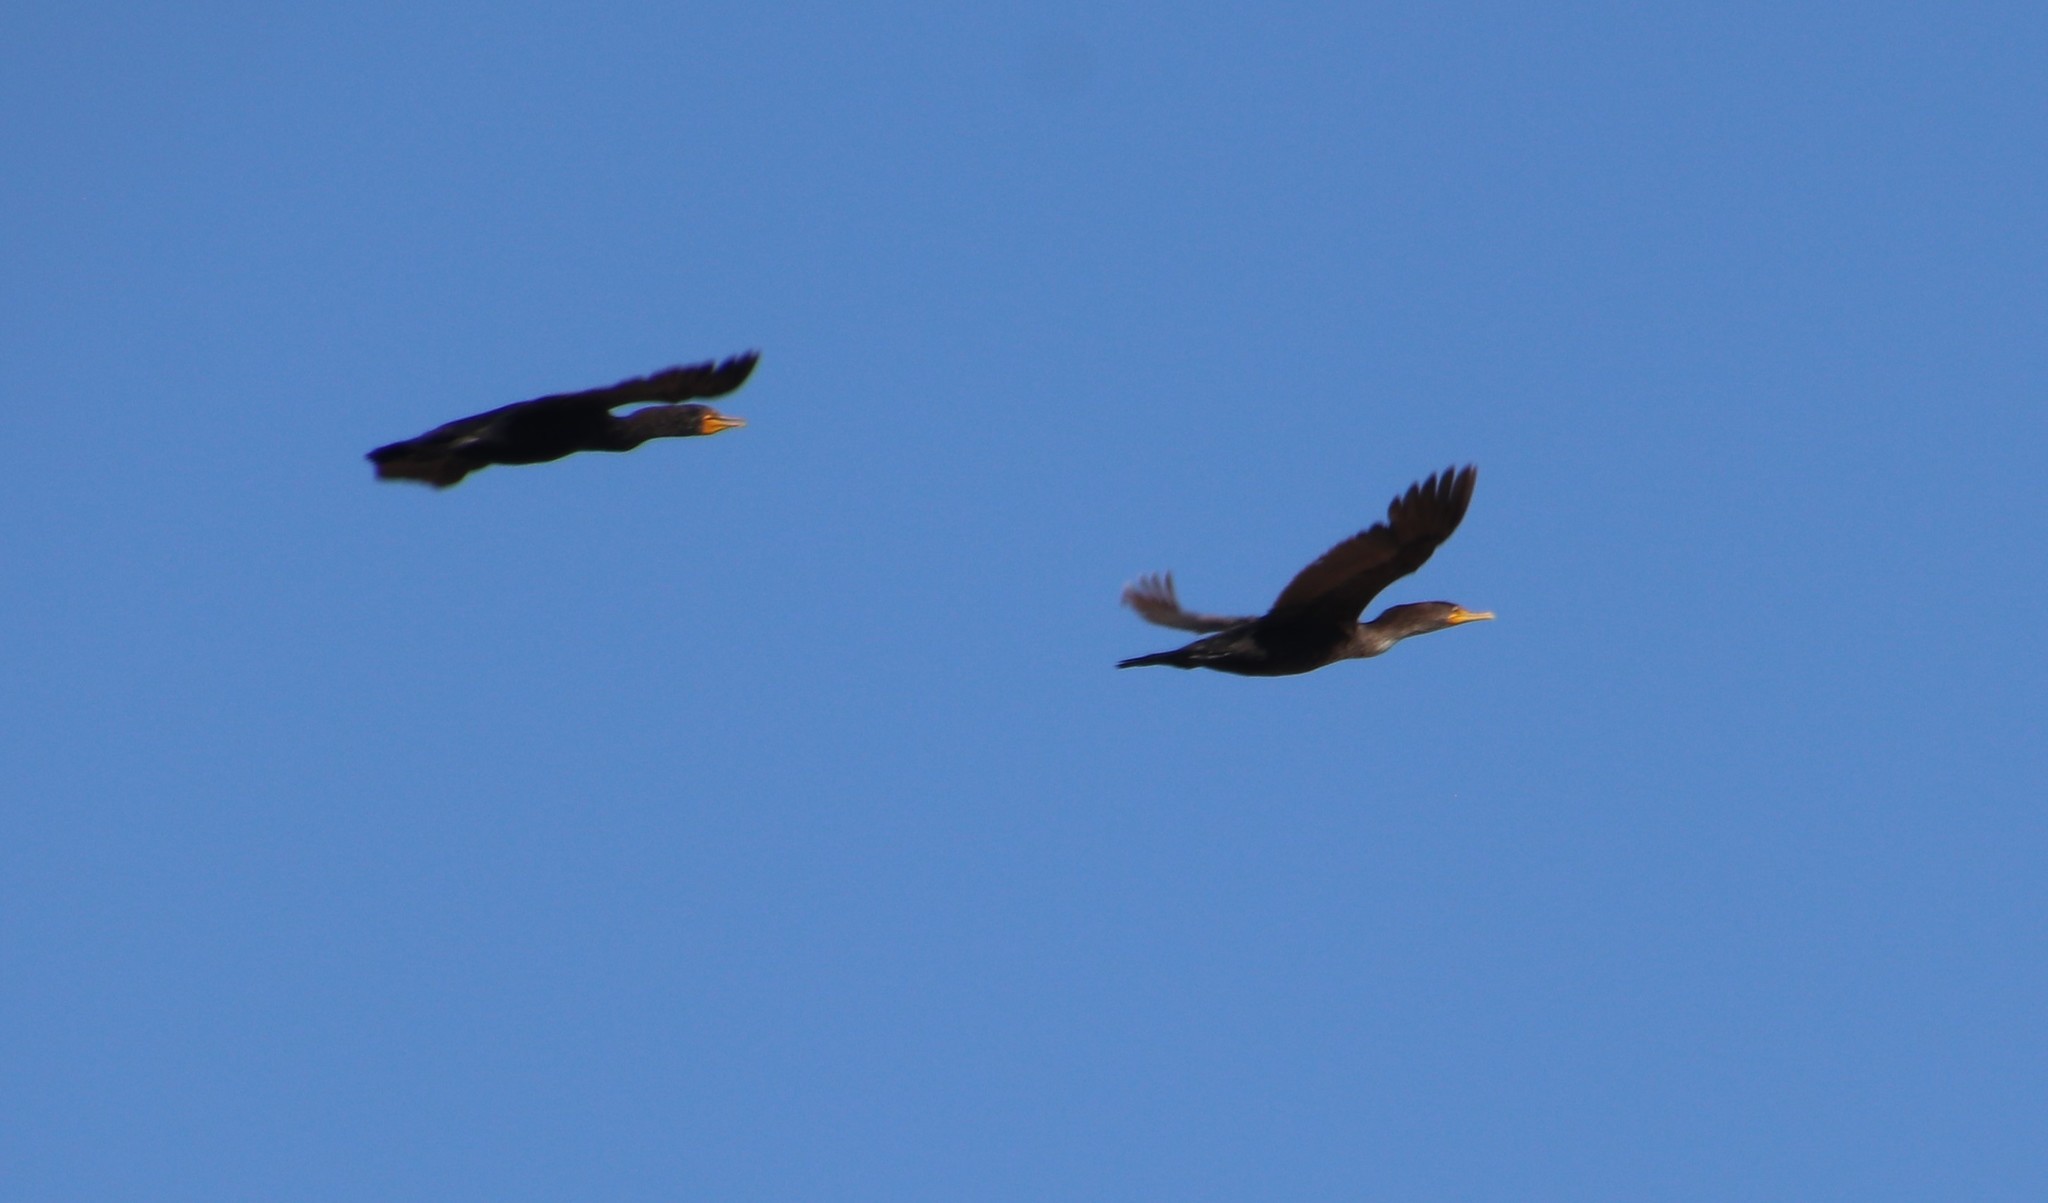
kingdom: Animalia
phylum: Chordata
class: Aves
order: Suliformes
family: Phalacrocoracidae
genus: Phalacrocorax
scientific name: Phalacrocorax auritus
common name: Double-crested cormorant
